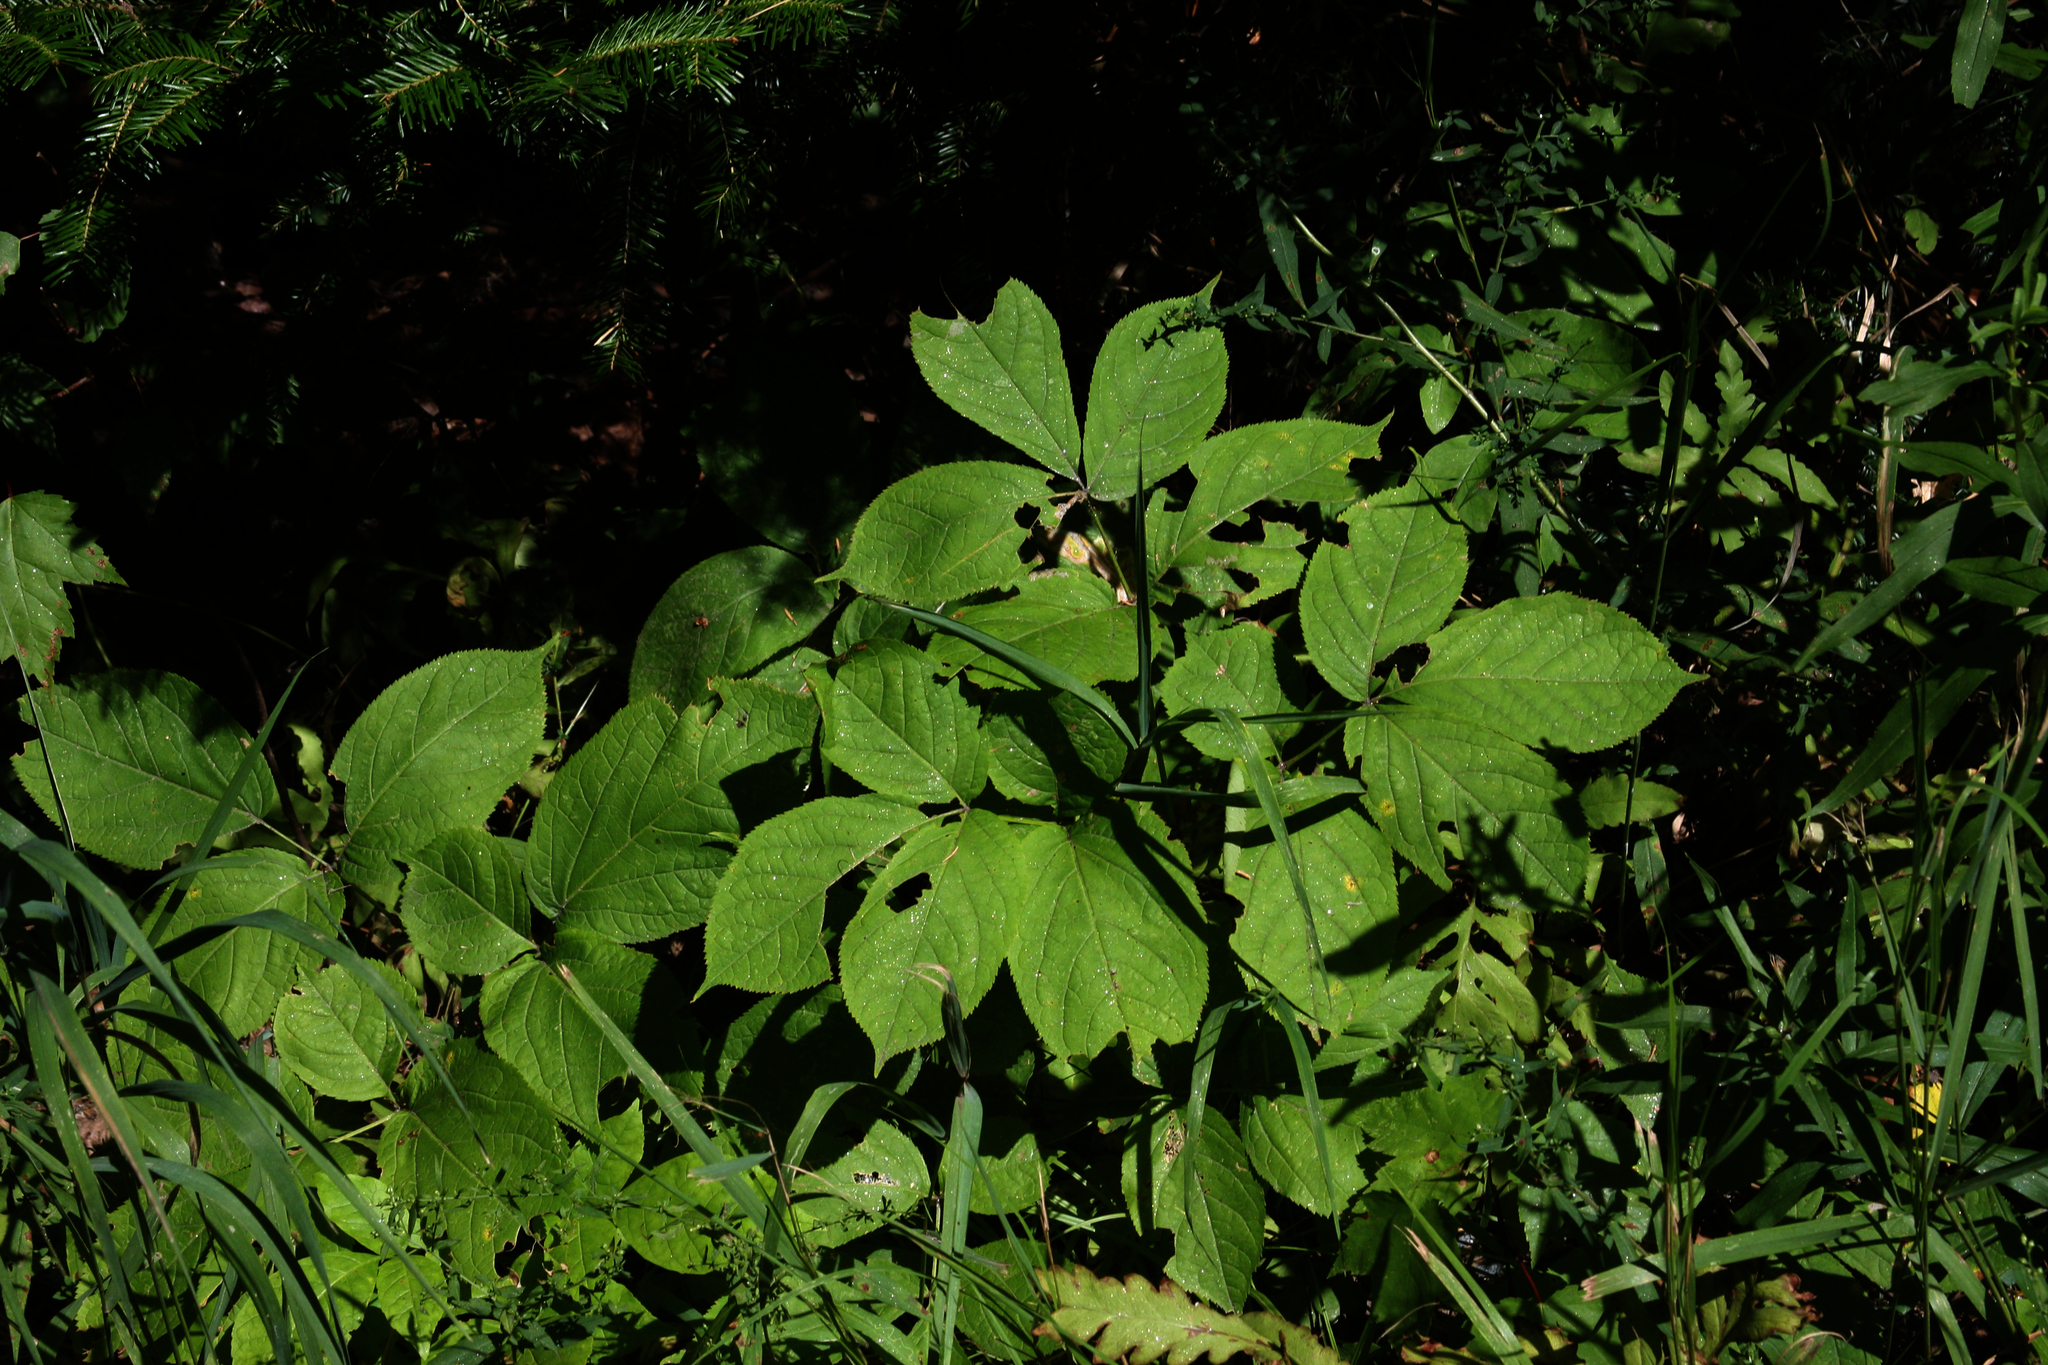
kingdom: Plantae
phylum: Tracheophyta
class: Magnoliopsida
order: Apiales
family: Araliaceae
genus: Aralia
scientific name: Aralia nudicaulis
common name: Wild sarsaparilla
